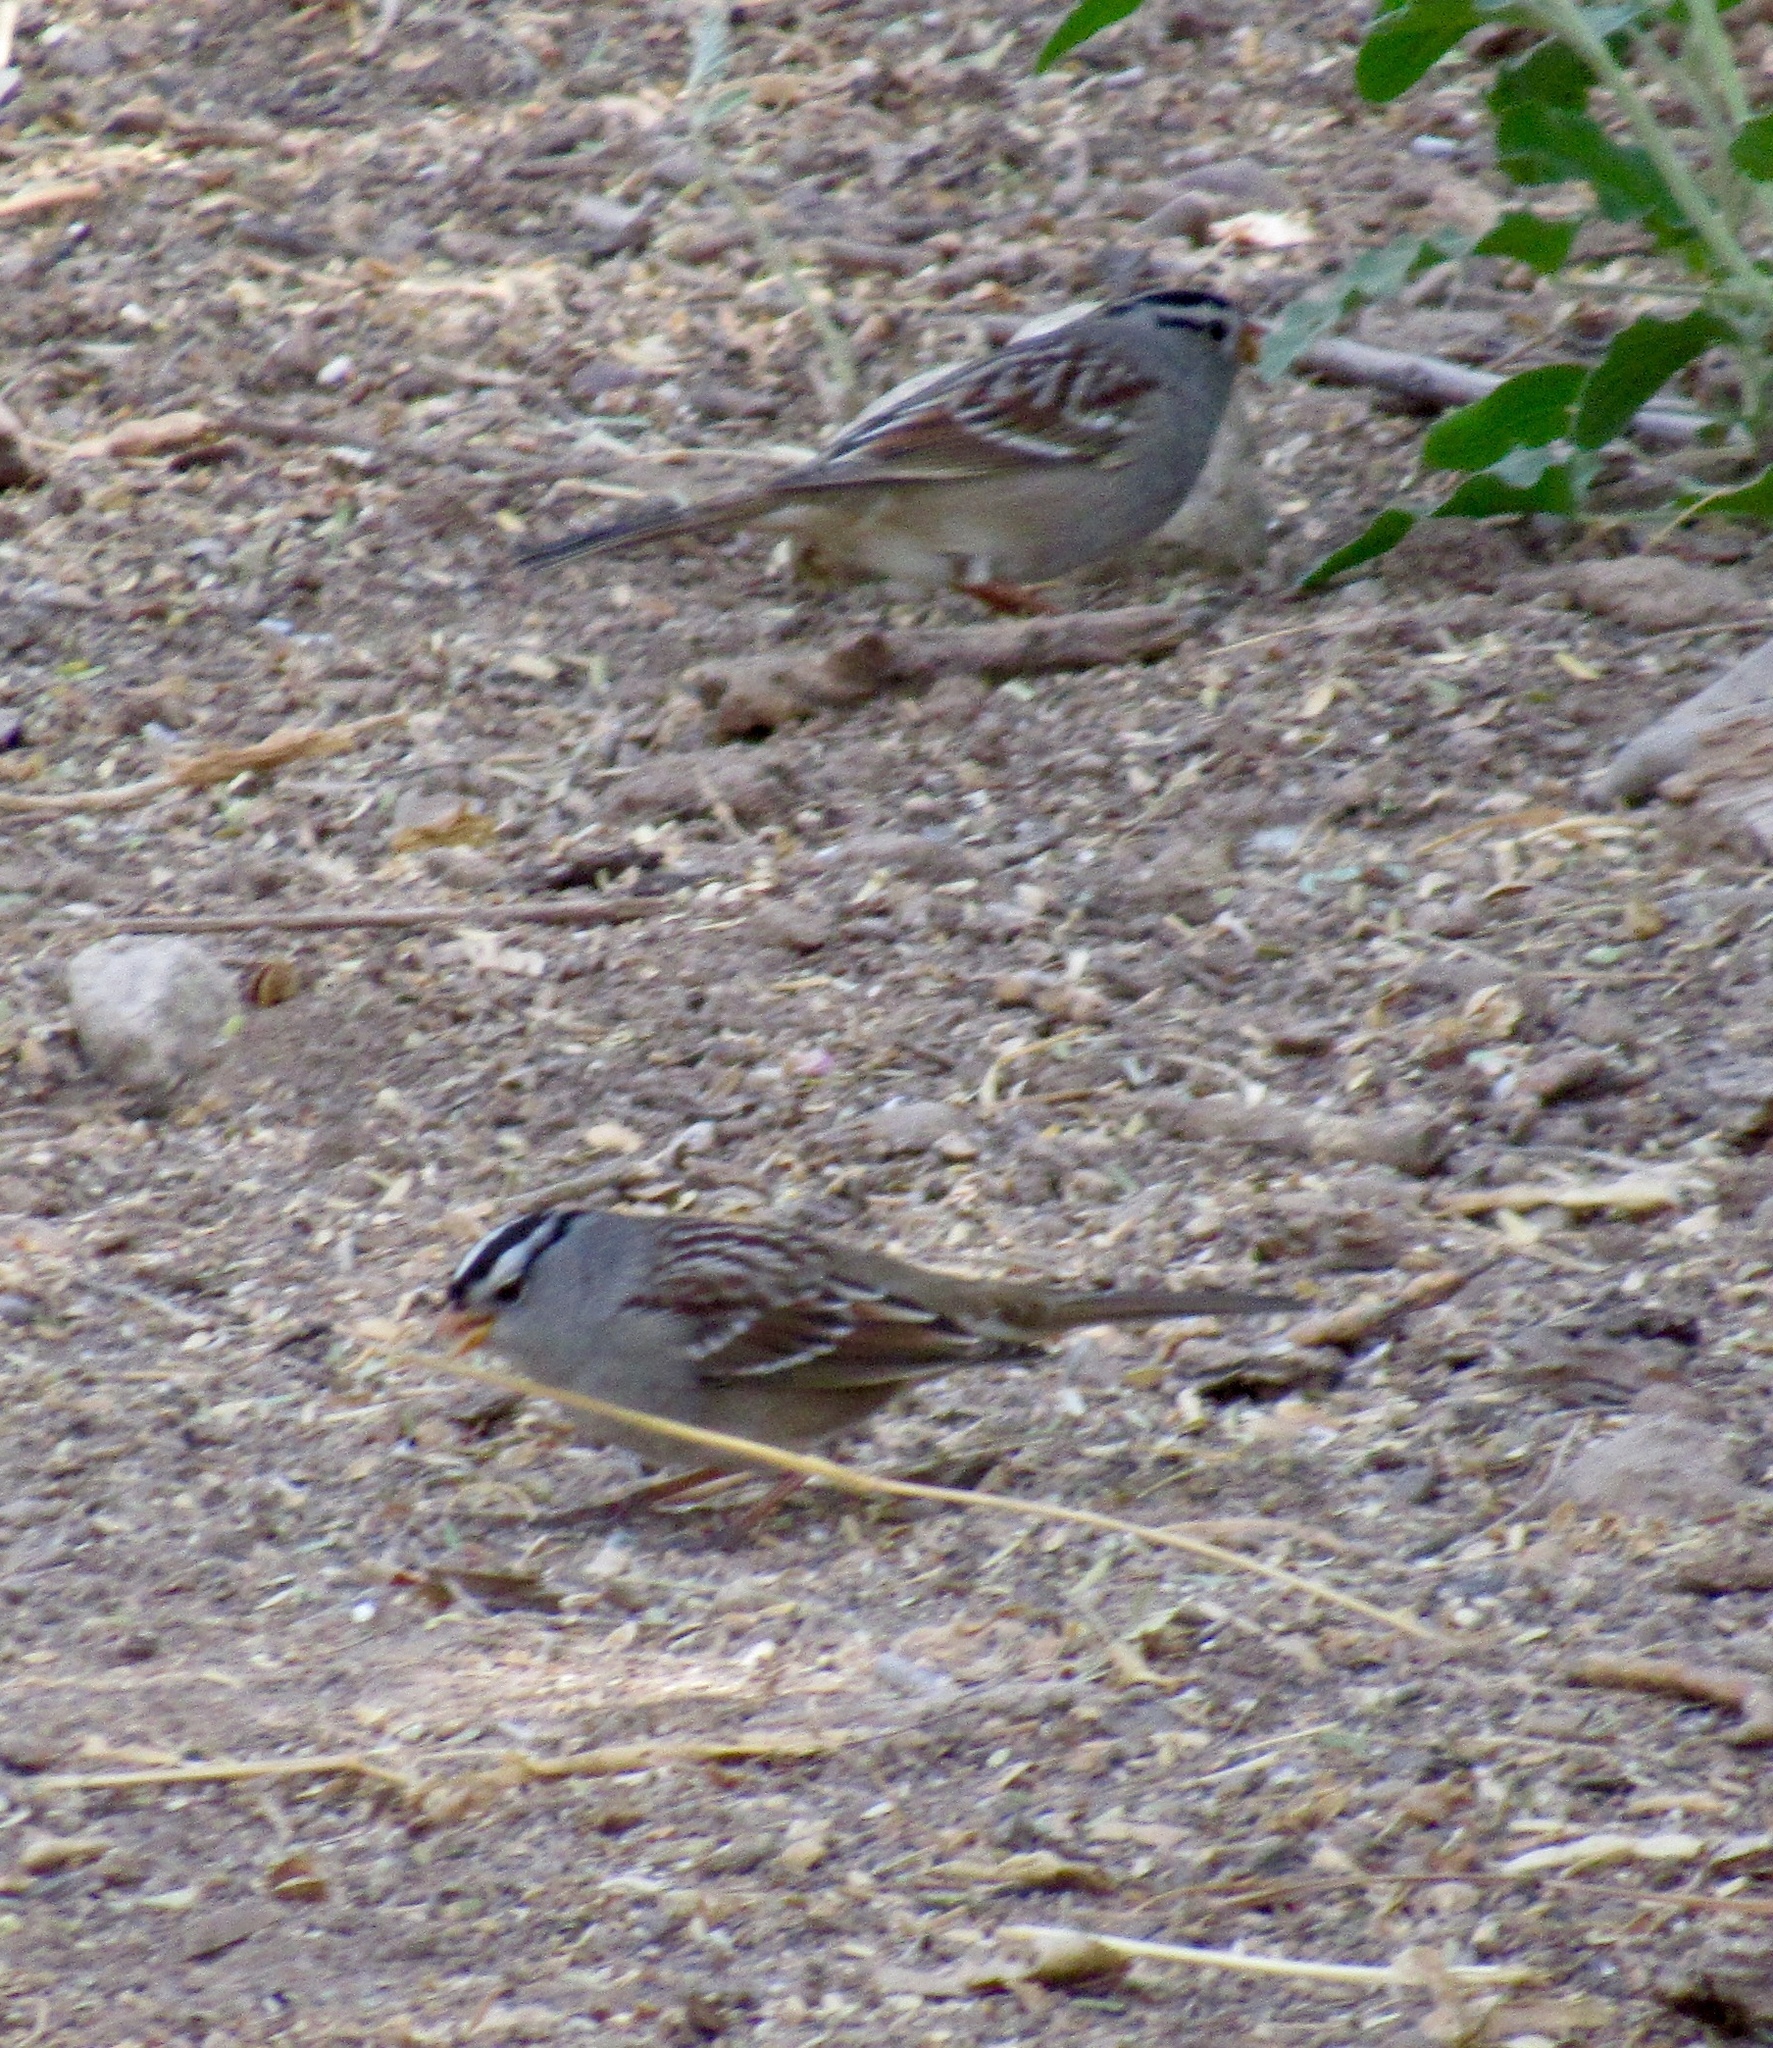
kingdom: Animalia
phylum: Chordata
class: Aves
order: Passeriformes
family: Passerellidae
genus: Zonotrichia
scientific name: Zonotrichia leucophrys
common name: White-crowned sparrow
